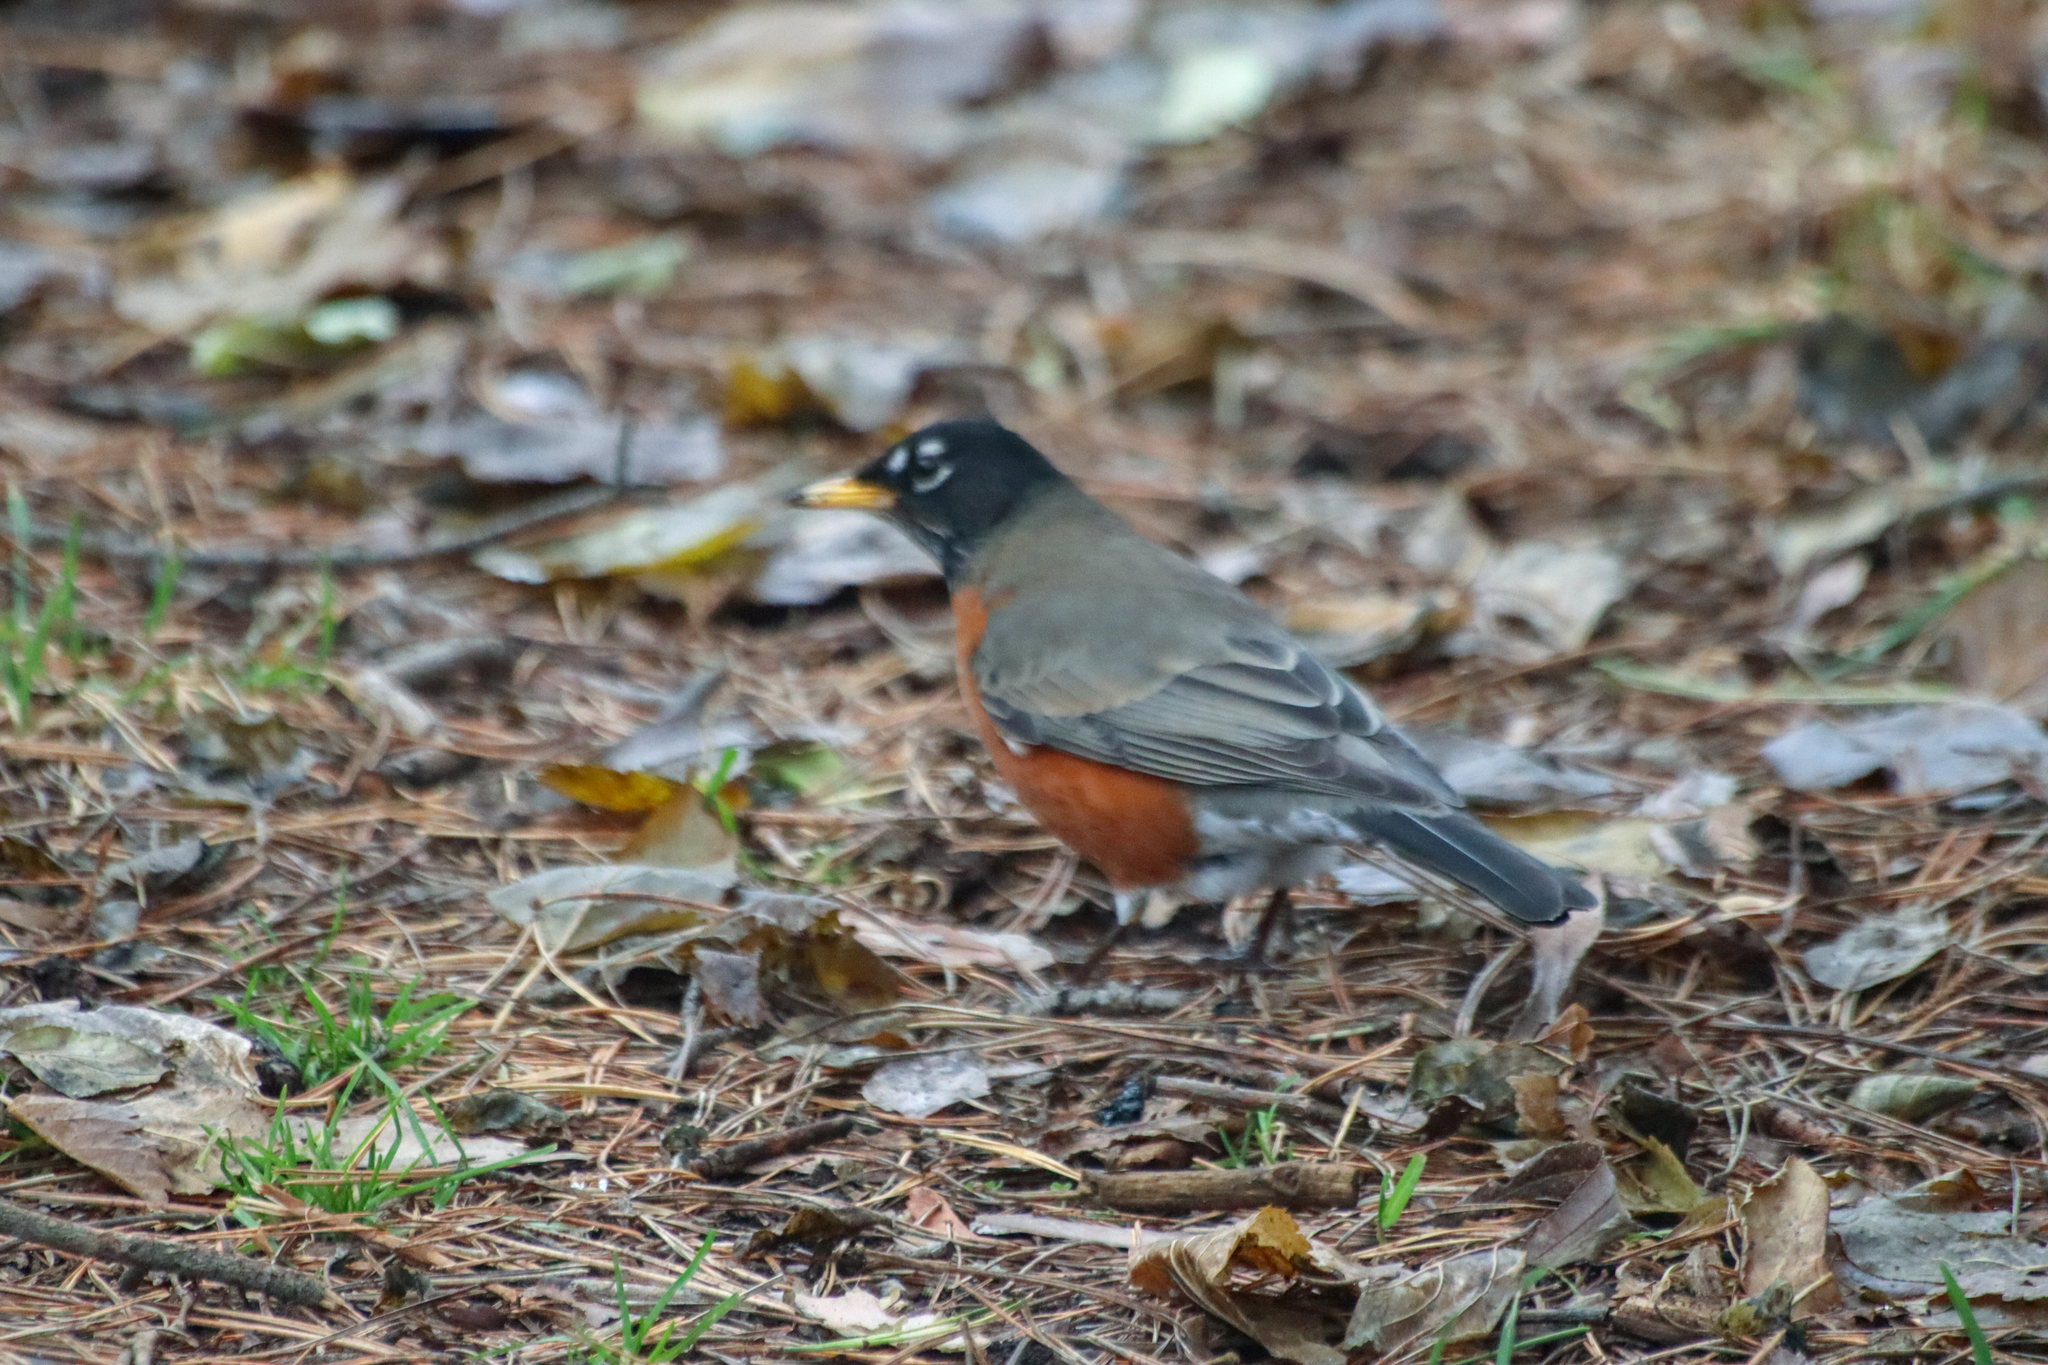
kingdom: Animalia
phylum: Chordata
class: Aves
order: Passeriformes
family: Turdidae
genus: Turdus
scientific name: Turdus migratorius
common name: American robin
